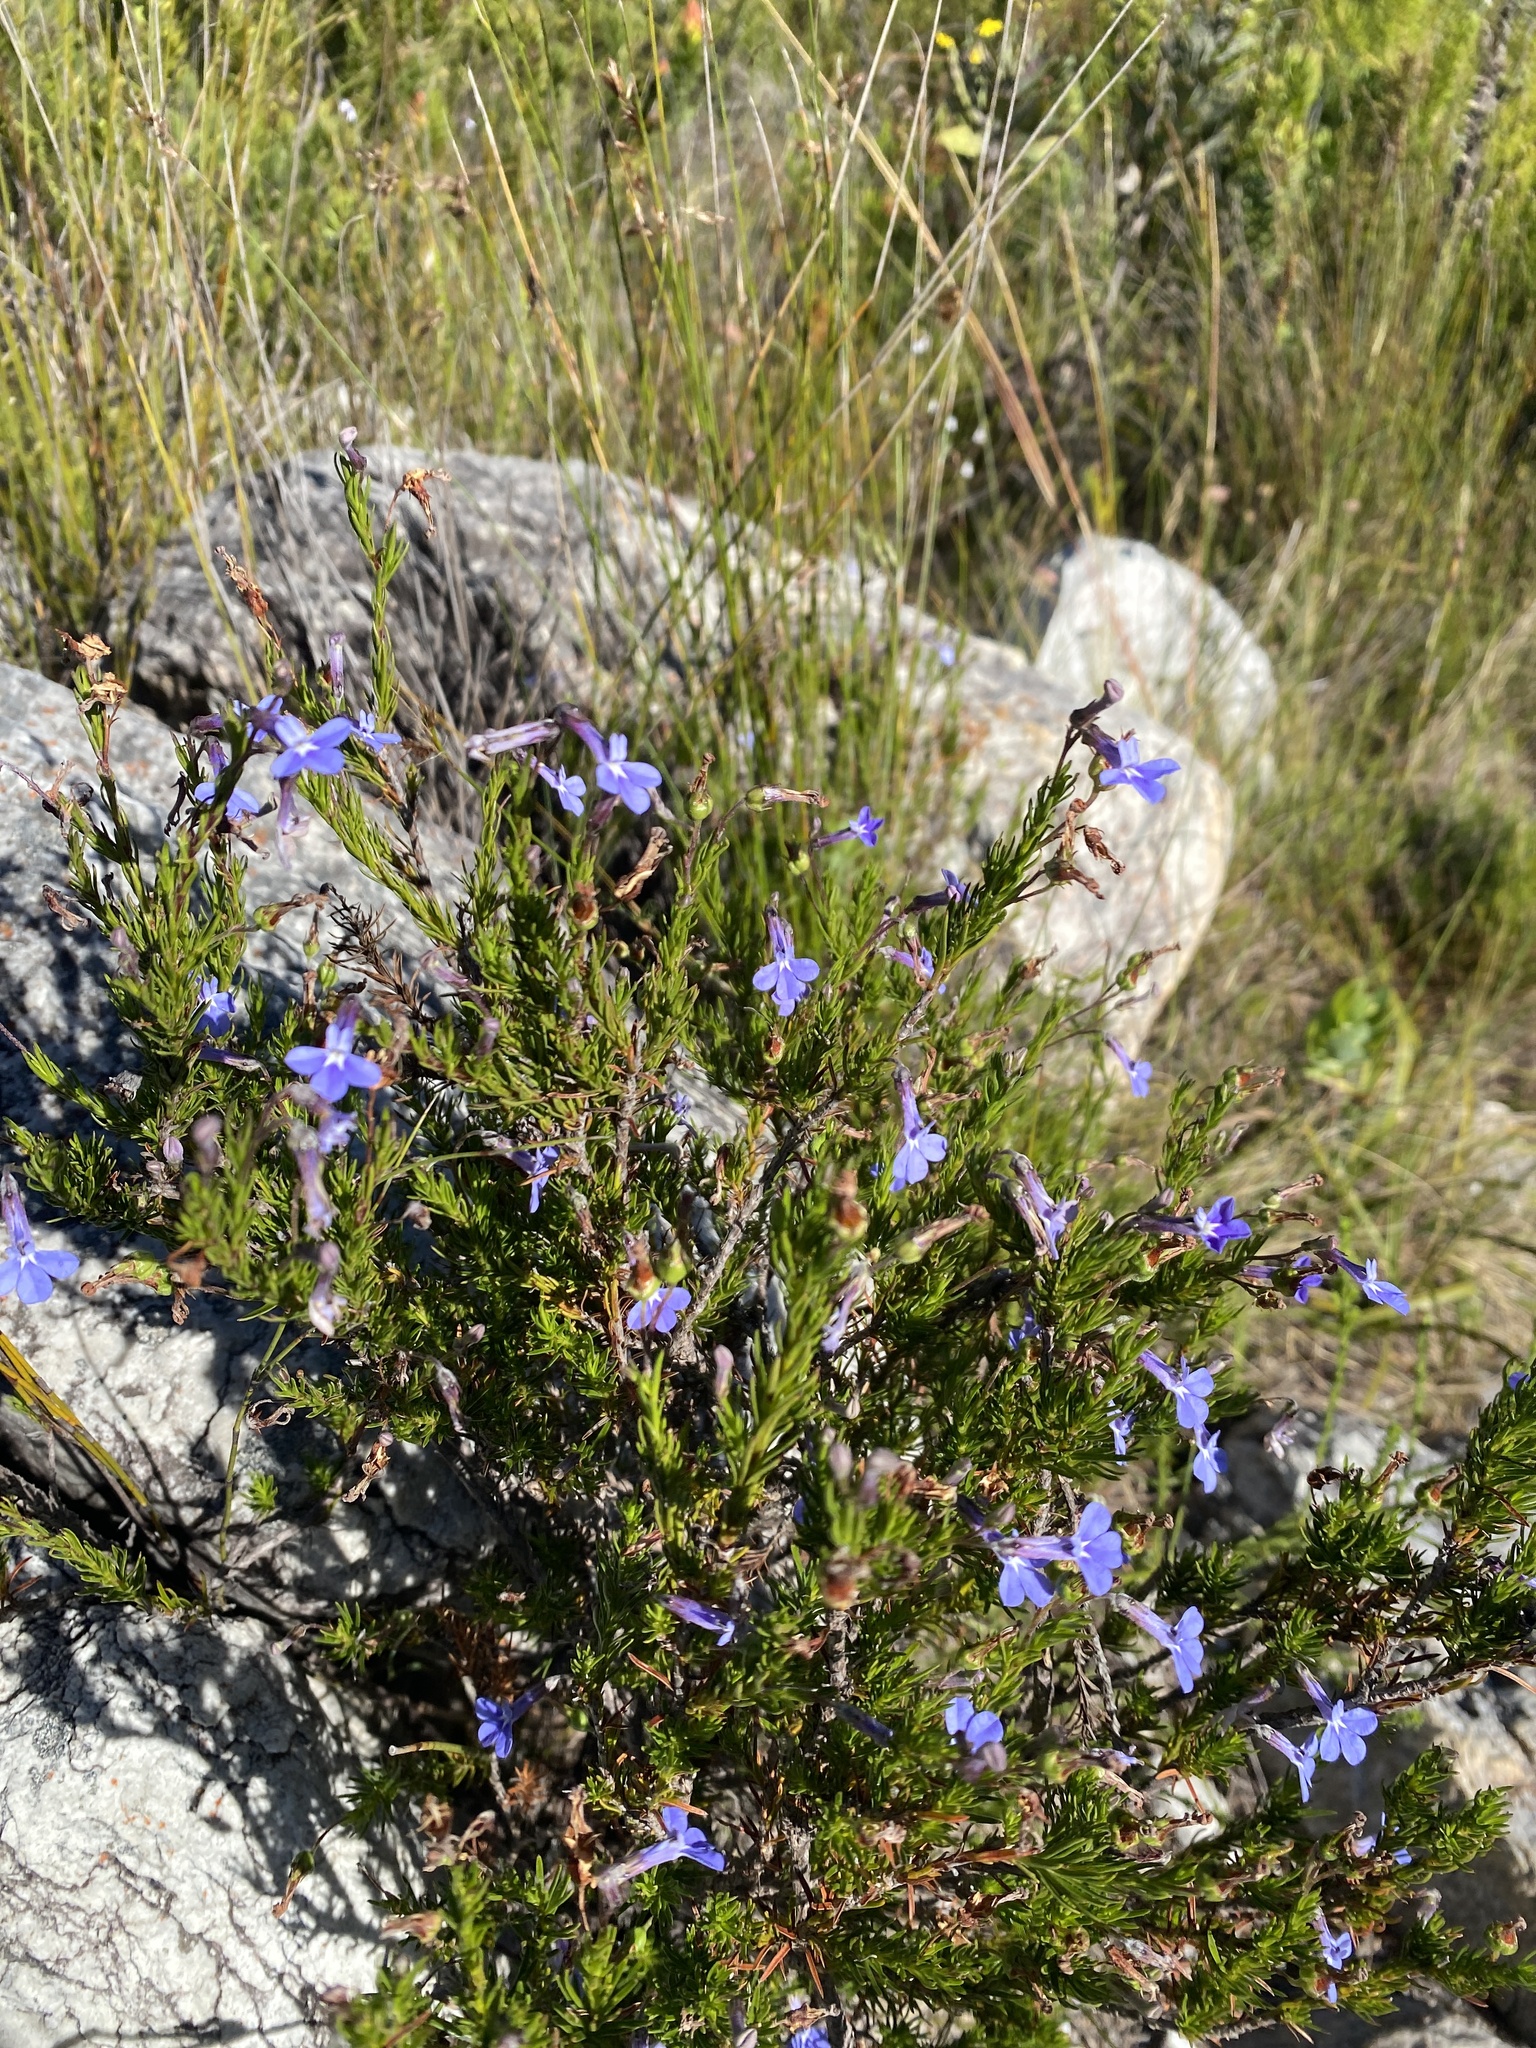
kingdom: Plantae
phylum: Tracheophyta
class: Magnoliopsida
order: Asterales
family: Campanulaceae
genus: Lobelia
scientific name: Lobelia pinifolia
